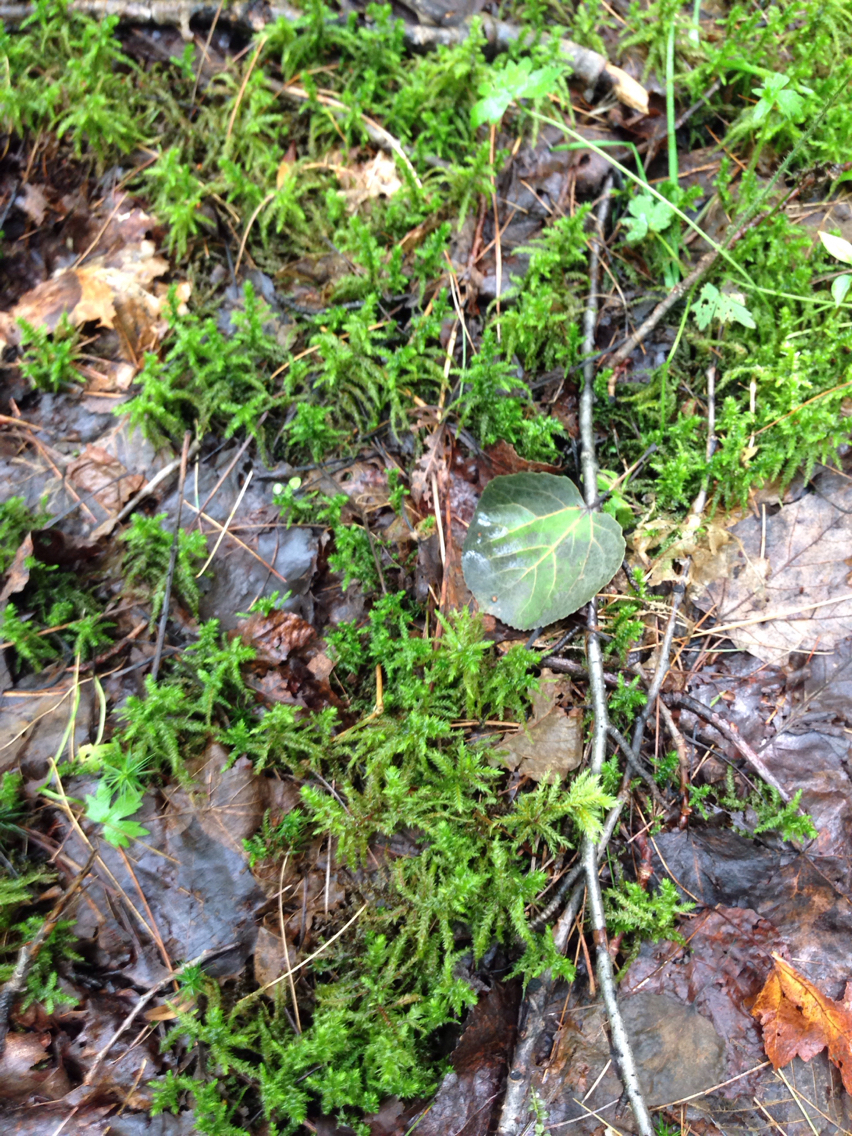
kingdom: Plantae
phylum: Bryophyta
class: Bryopsida
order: Hypnales
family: Hylocomiaceae
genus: Hylocomiadelphus
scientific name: Hylocomiadelphus triquetrus
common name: Rough goose neck moss
